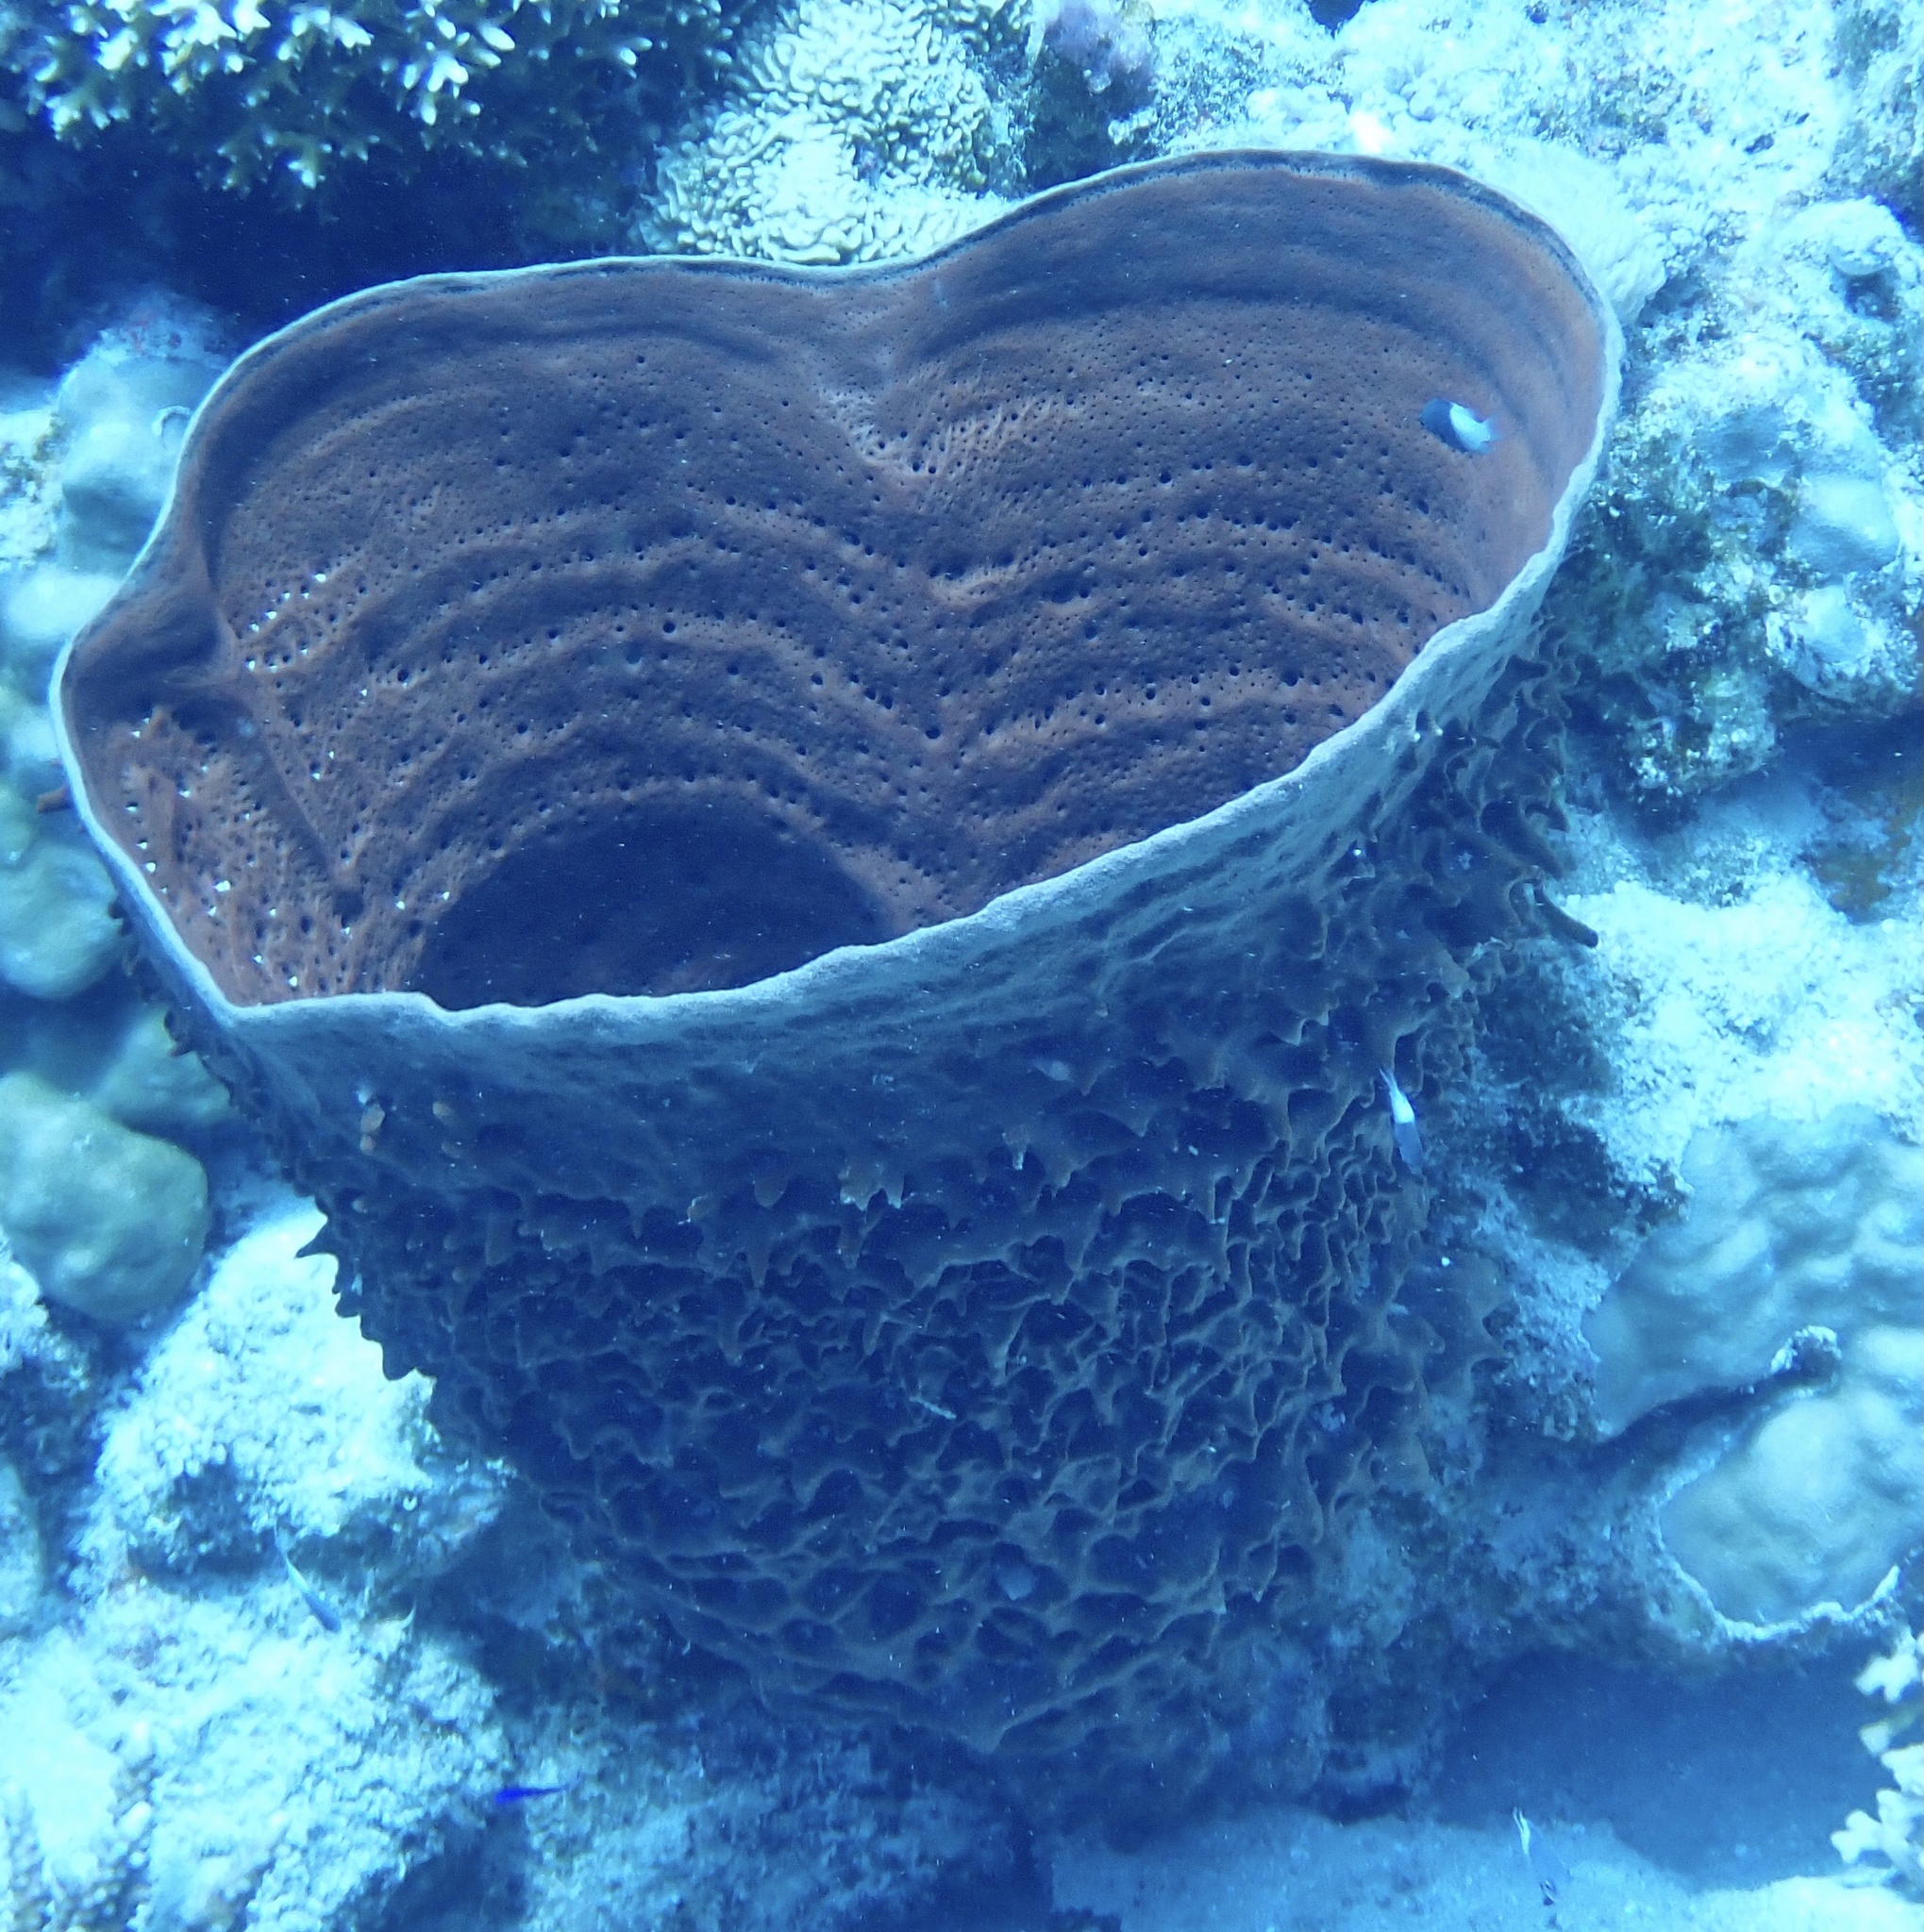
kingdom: Animalia
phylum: Porifera
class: Demospongiae
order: Haplosclerida
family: Callyspongiidae
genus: Callyspongia
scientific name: Callyspongia crassa
